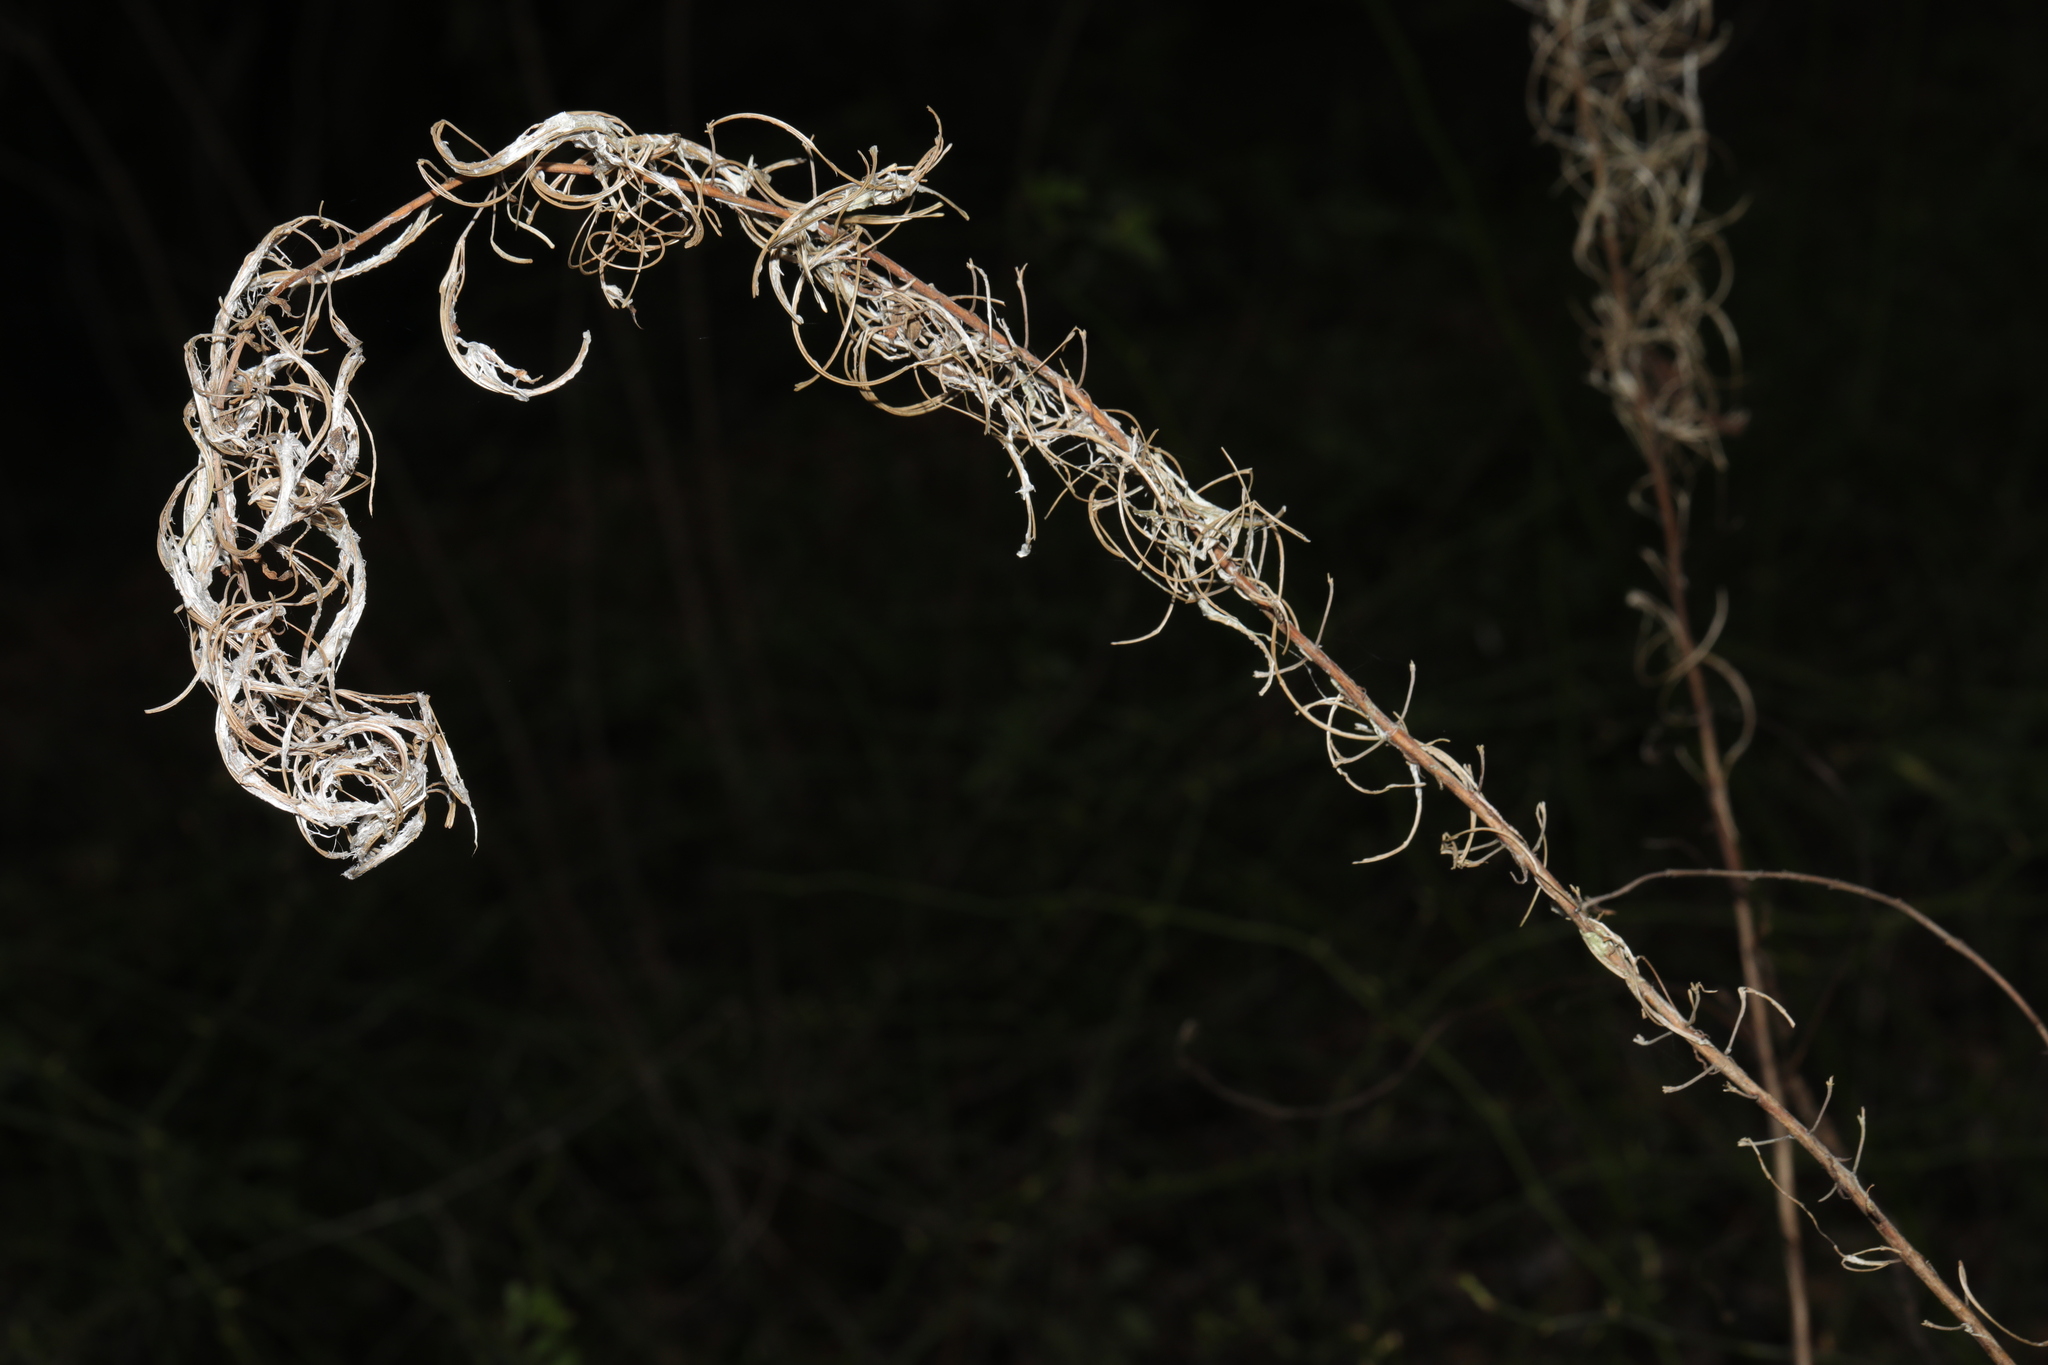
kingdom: Plantae
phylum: Tracheophyta
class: Magnoliopsida
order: Myrtales
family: Onagraceae
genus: Chamaenerion
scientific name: Chamaenerion angustifolium
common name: Fireweed
